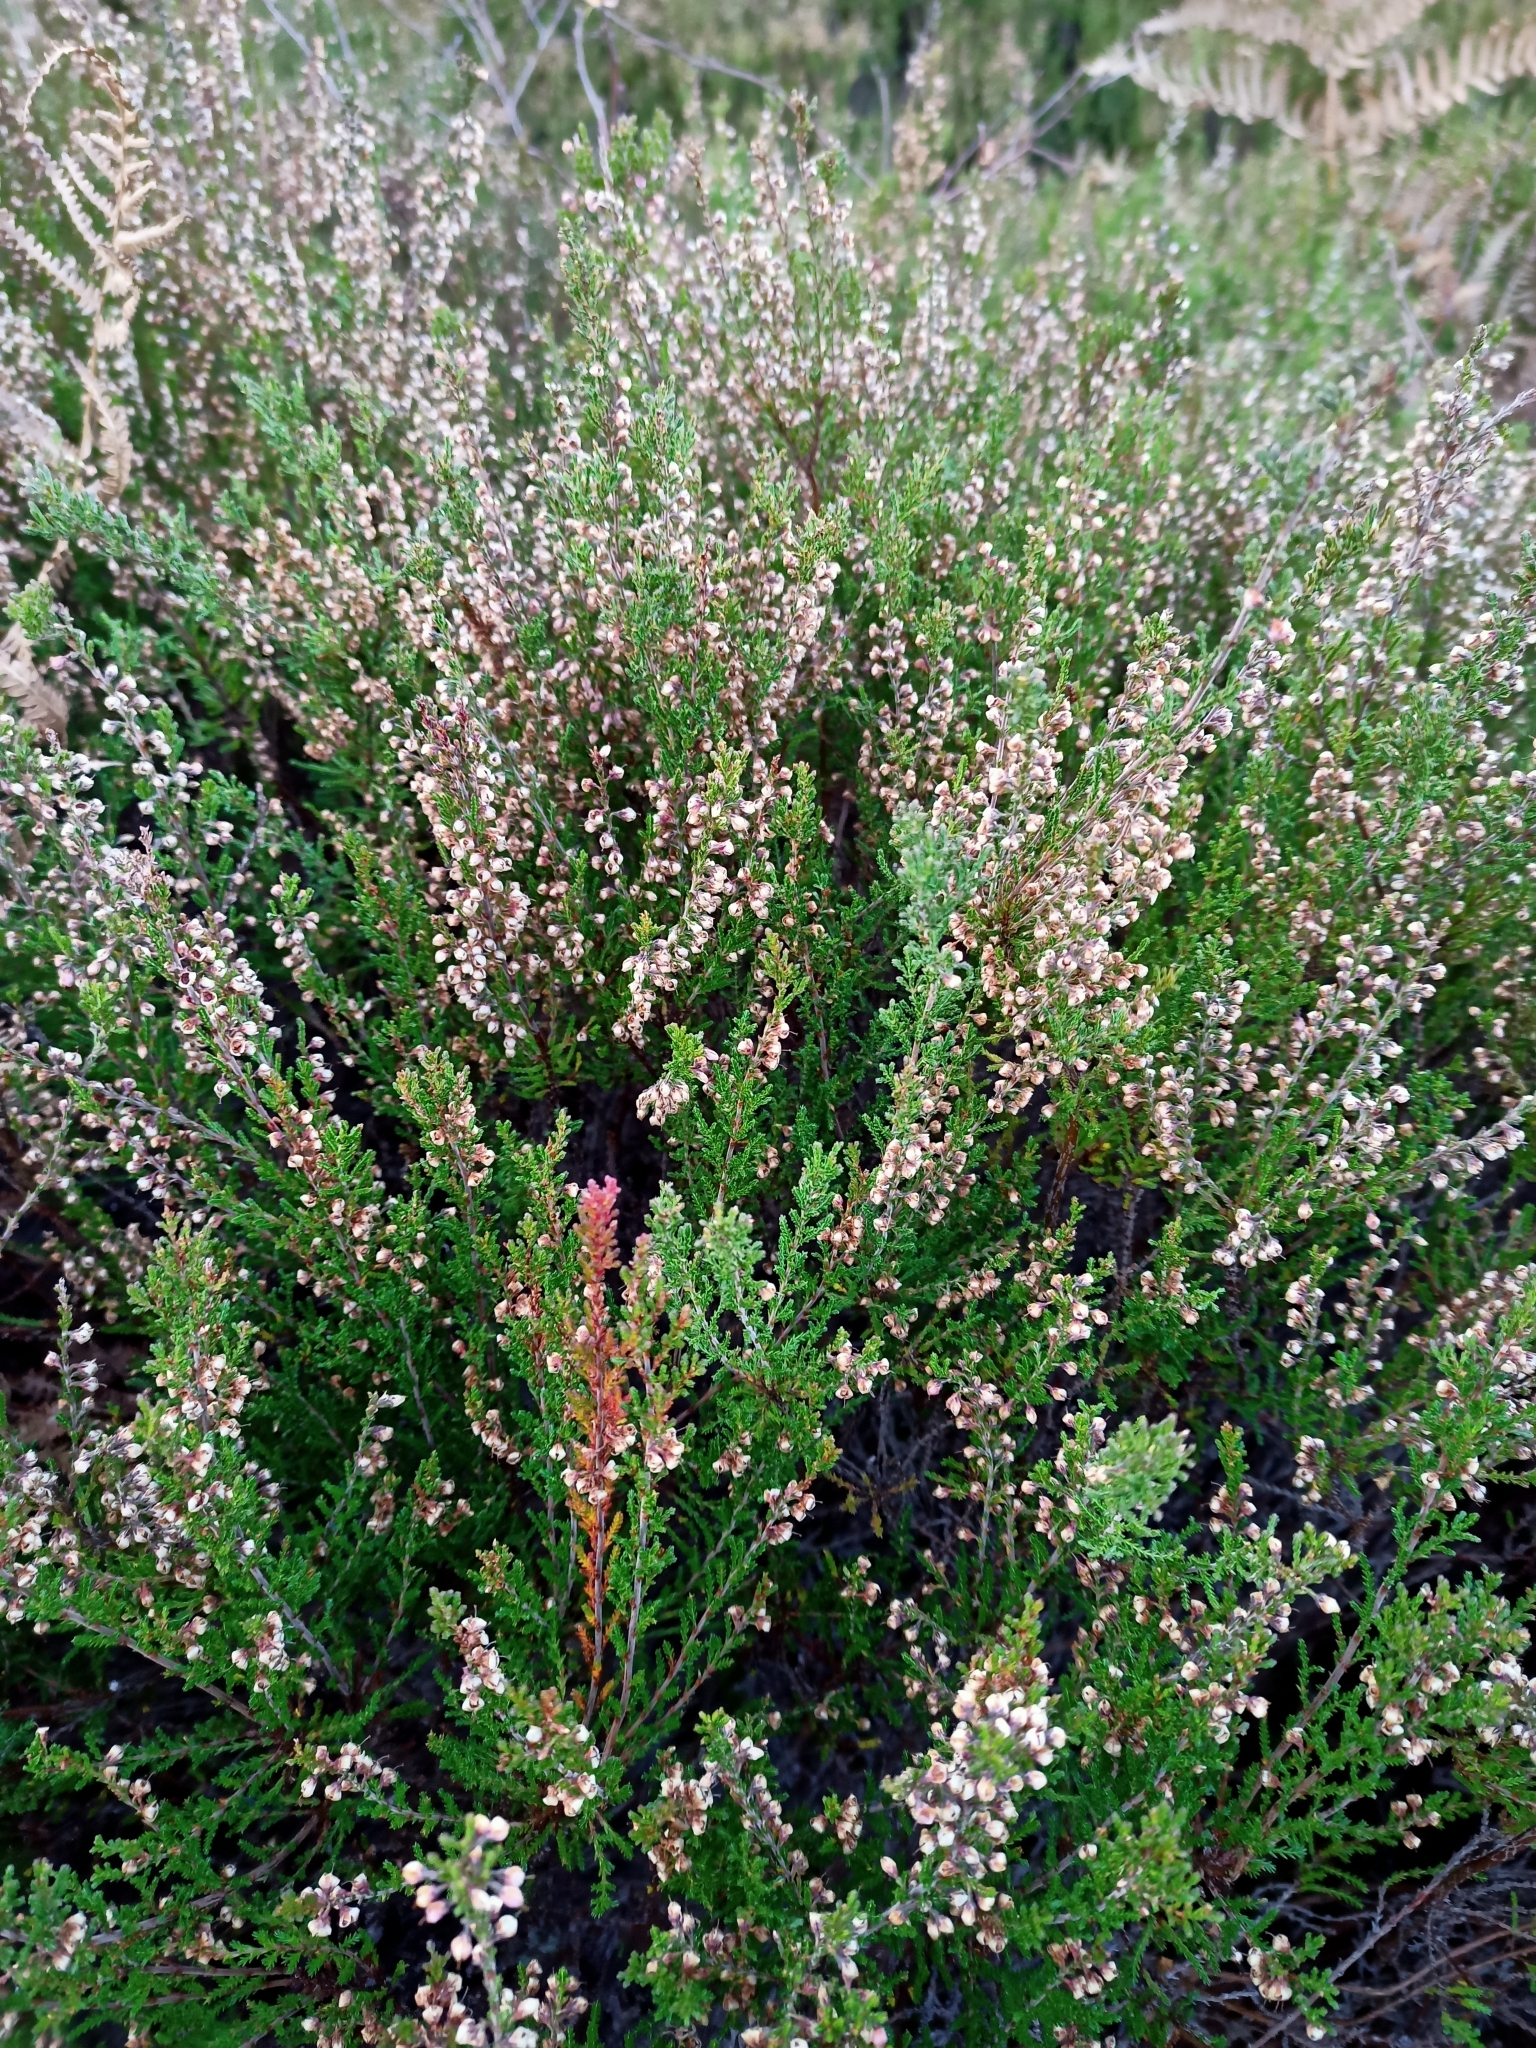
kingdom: Plantae
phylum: Tracheophyta
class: Magnoliopsida
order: Ericales
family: Ericaceae
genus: Calluna
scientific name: Calluna vulgaris
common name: Heather
